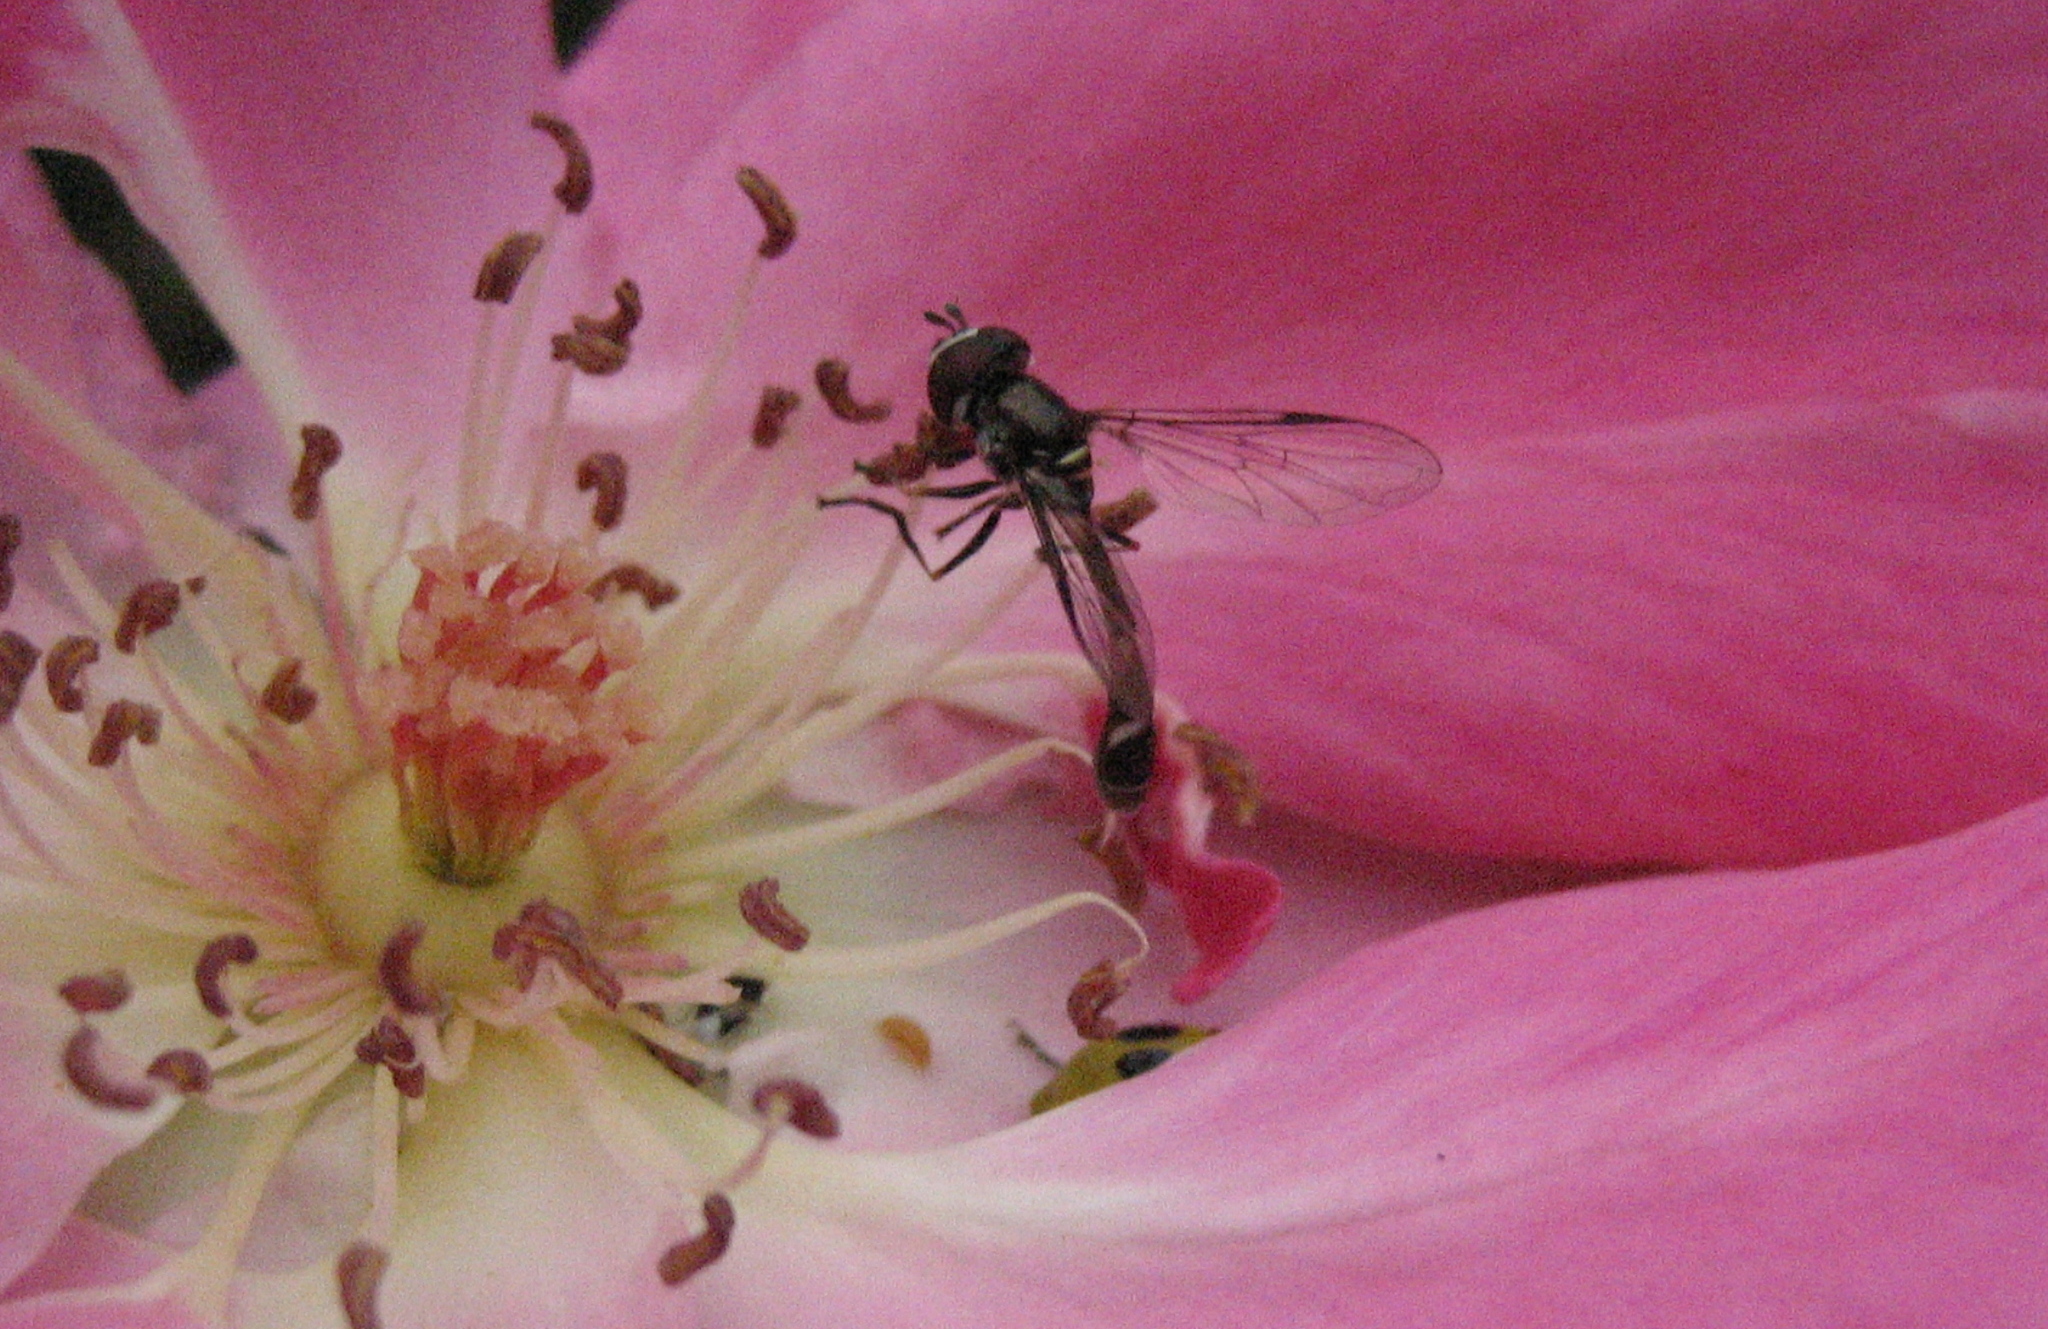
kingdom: Animalia
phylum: Arthropoda
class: Insecta
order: Diptera
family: Syrphidae
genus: Dioprosopa
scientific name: Dioprosopa clavatus
